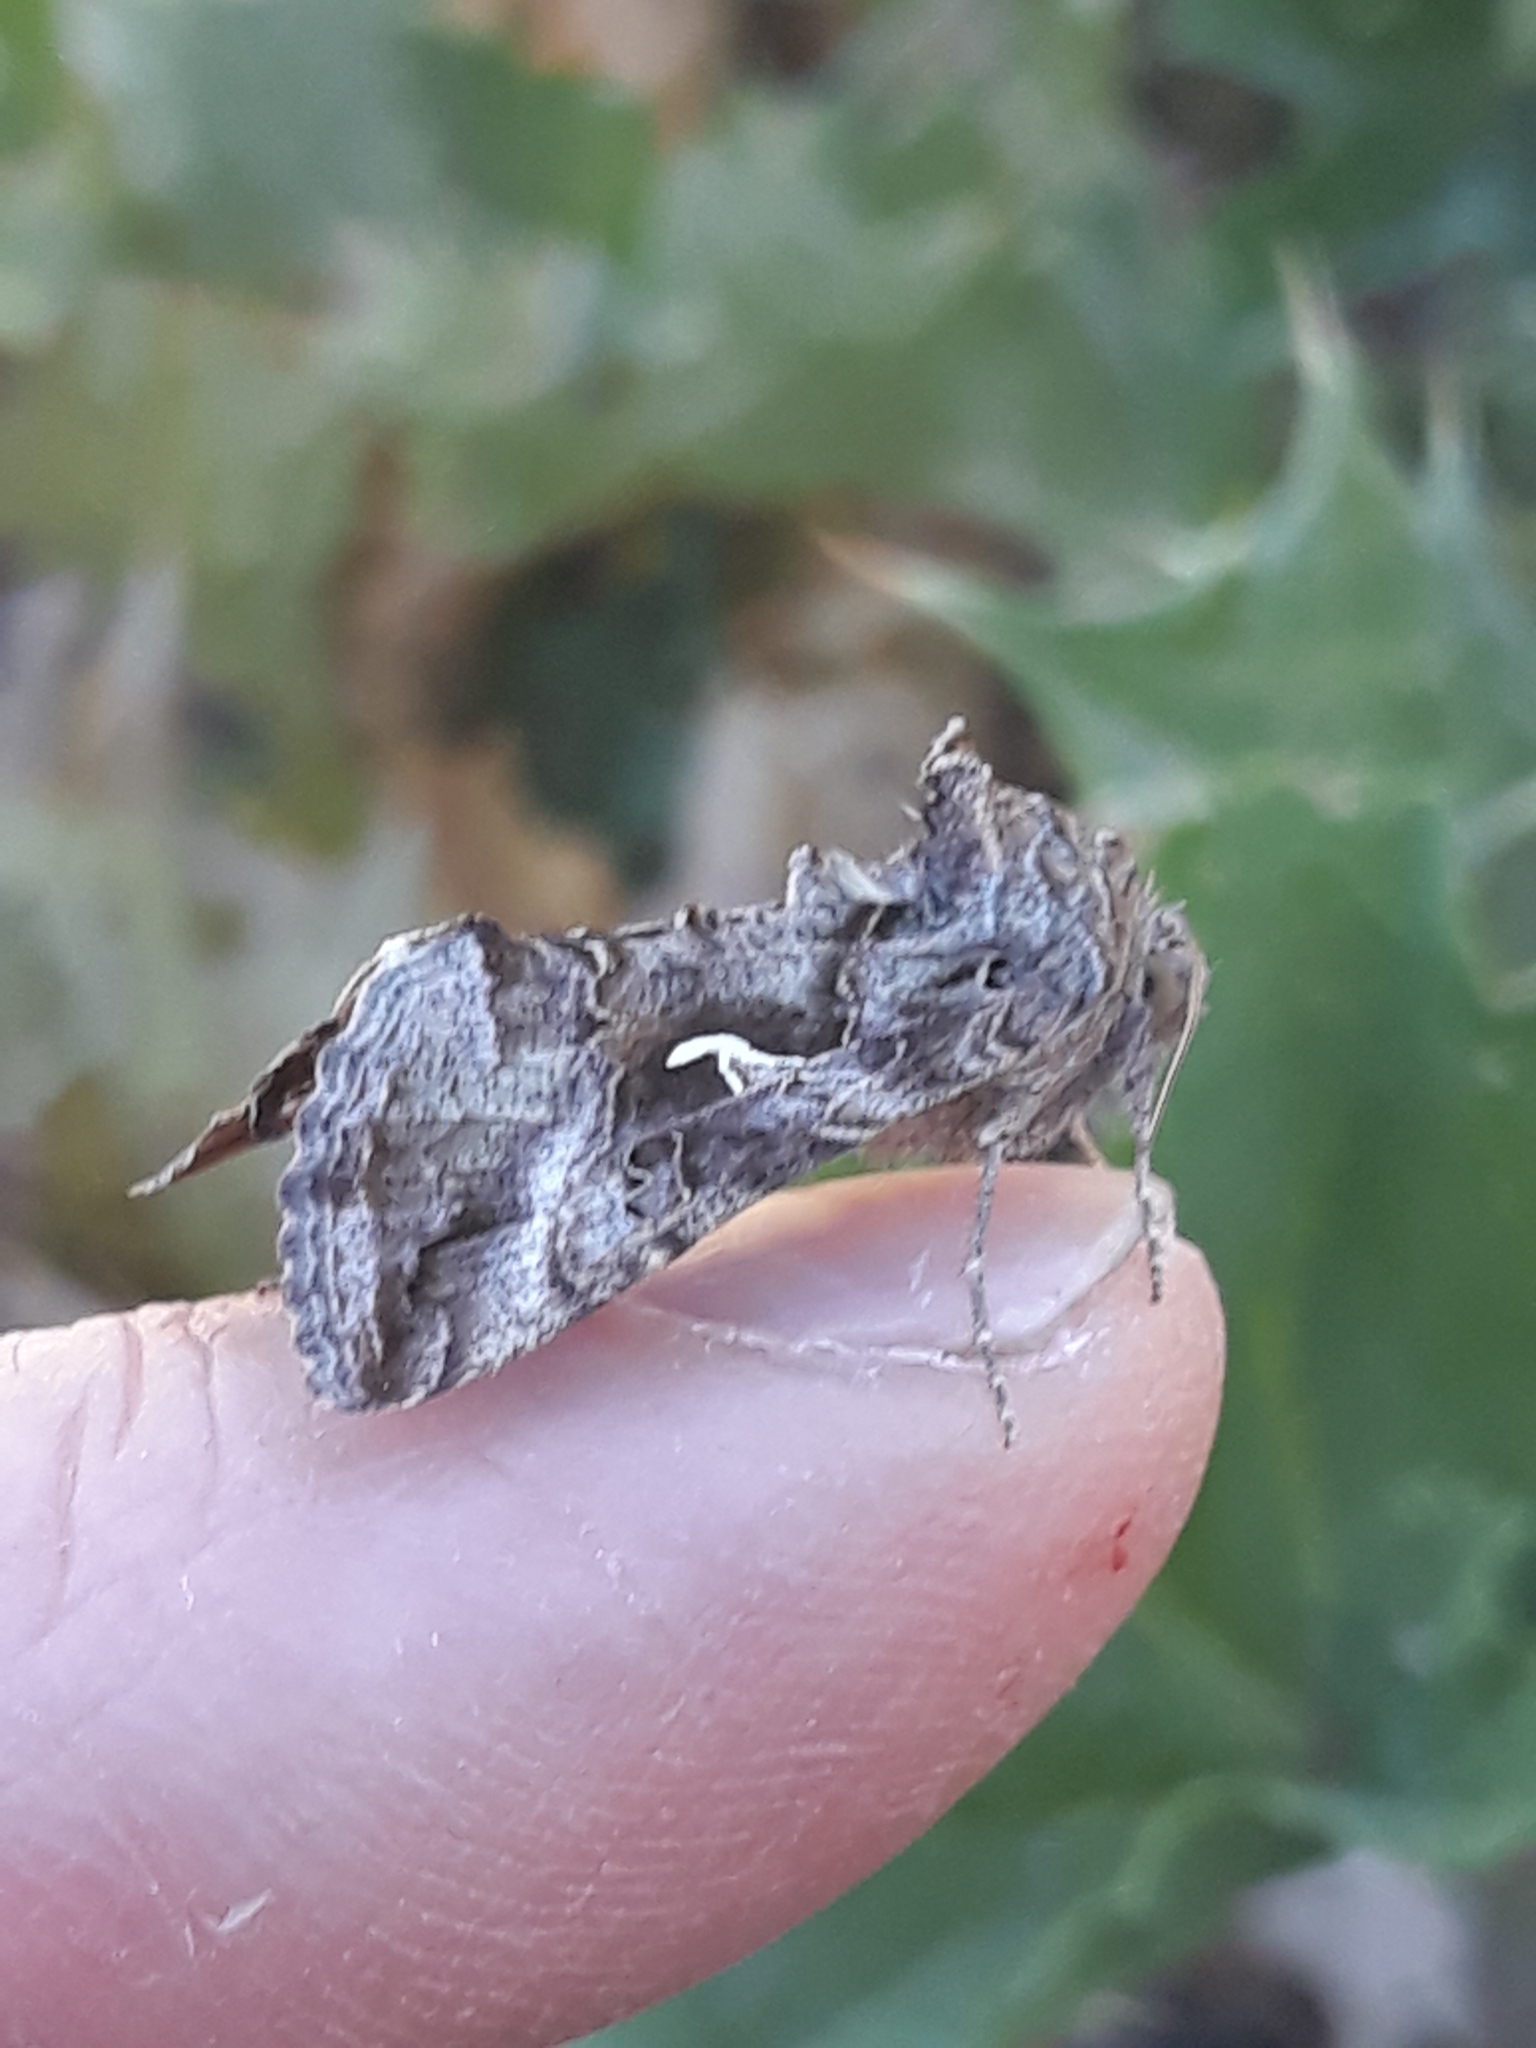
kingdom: Animalia
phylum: Arthropoda
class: Insecta
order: Lepidoptera
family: Noctuidae
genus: Autographa
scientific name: Autographa gamma
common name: Silver y
